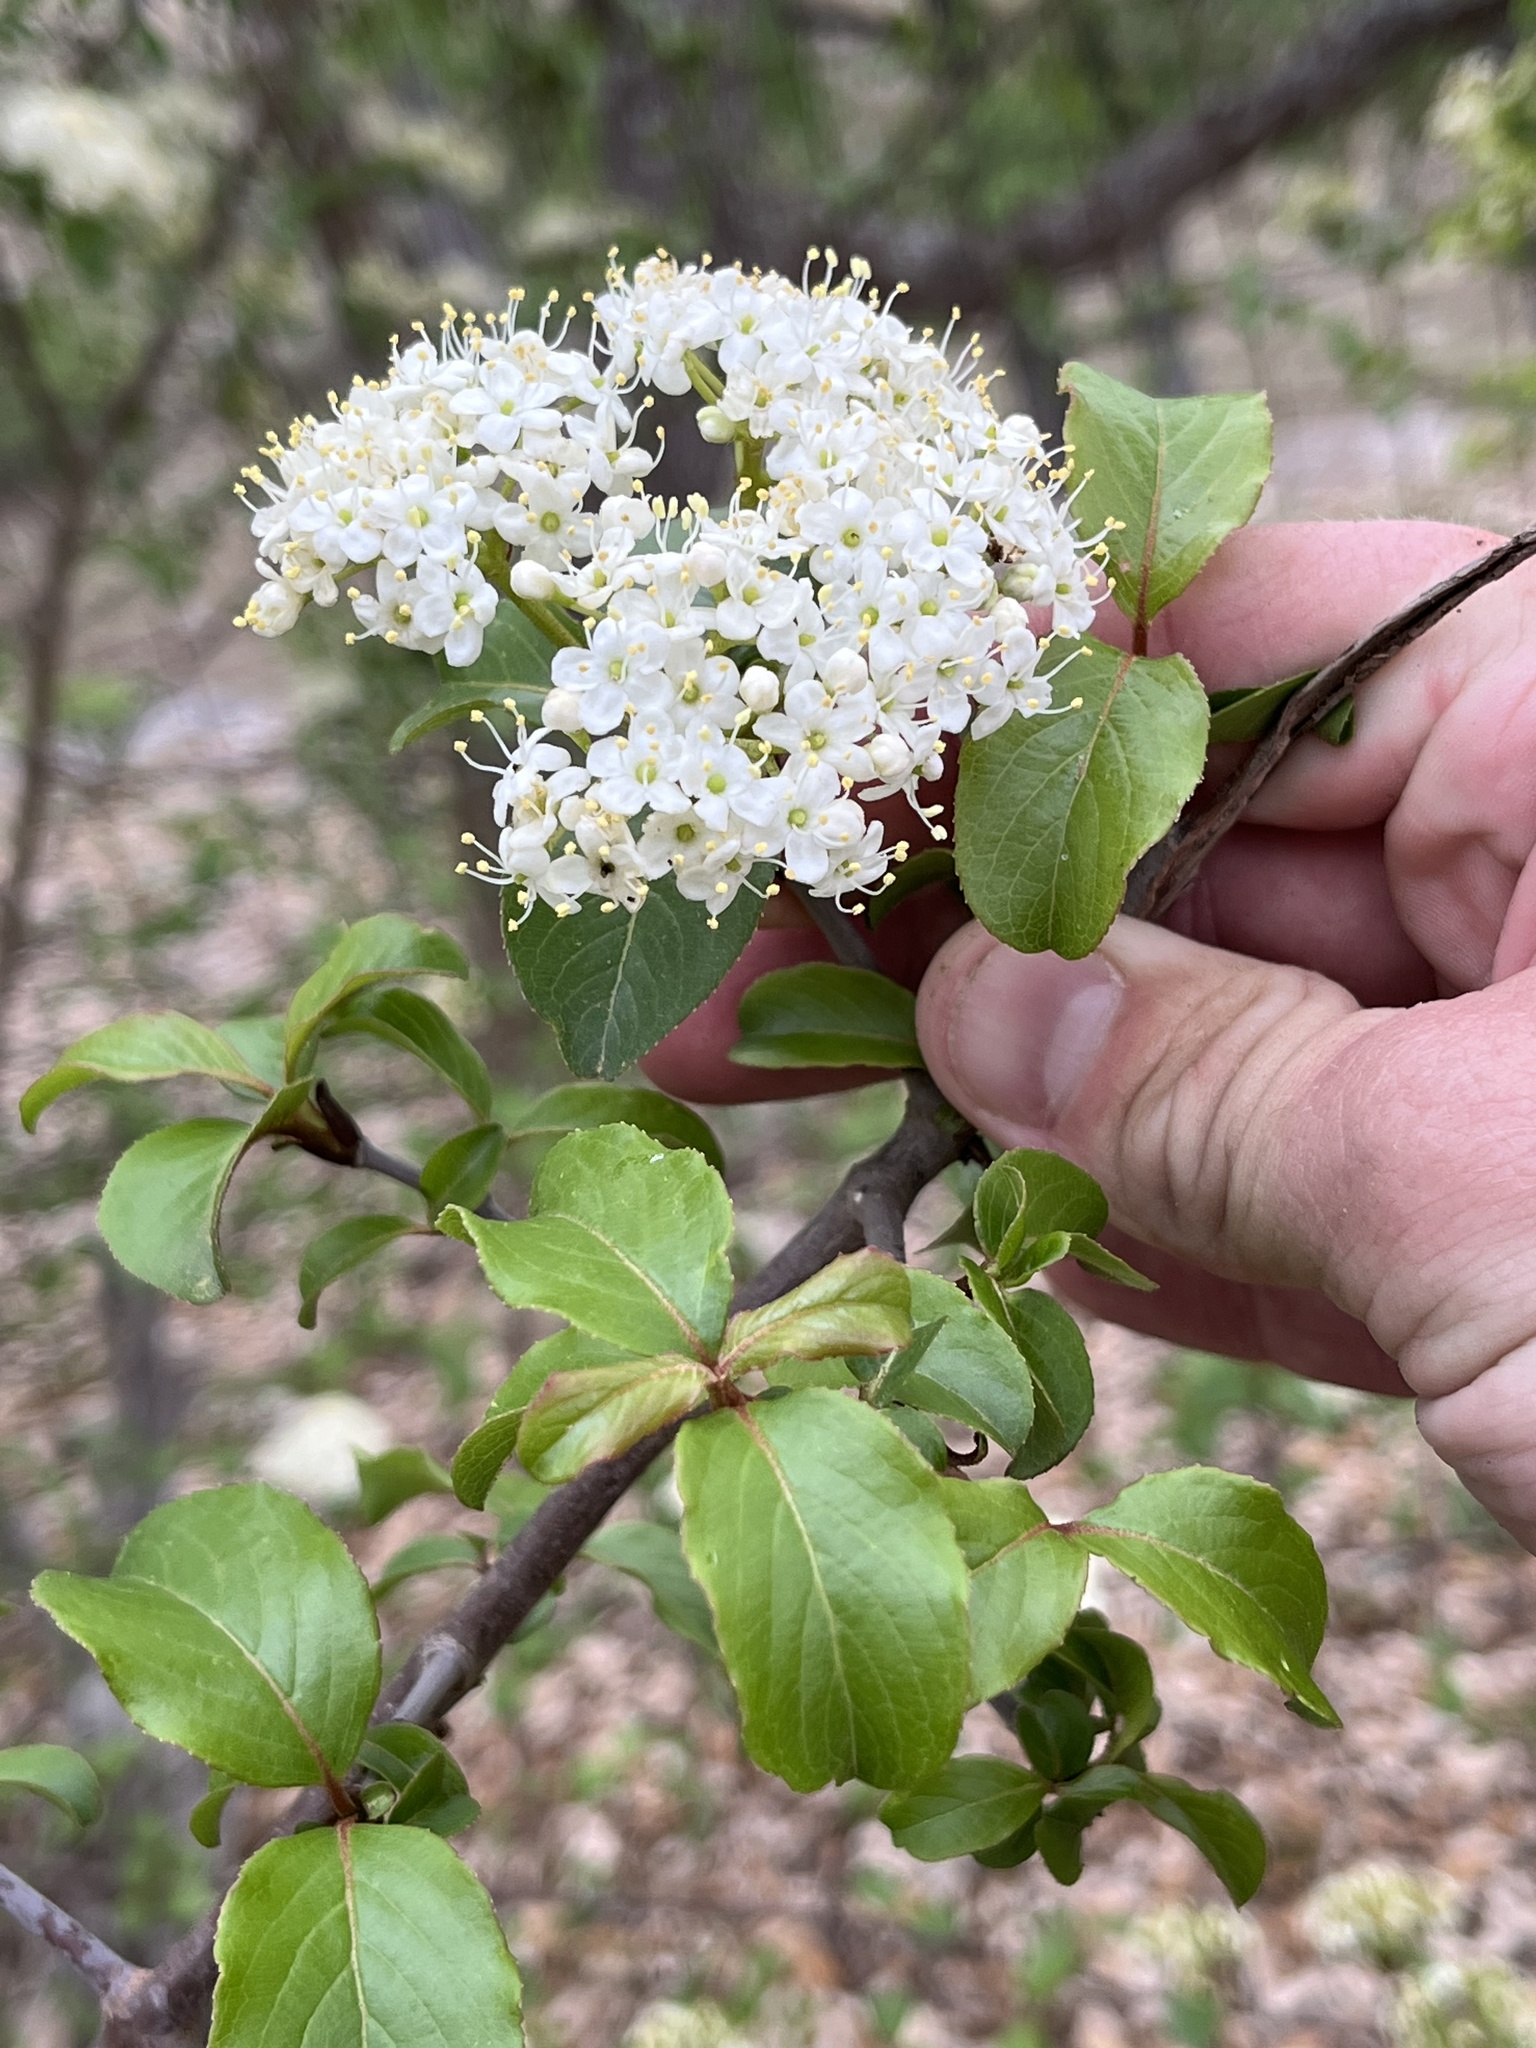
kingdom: Plantae
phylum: Tracheophyta
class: Magnoliopsida
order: Dipsacales
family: Viburnaceae
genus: Viburnum
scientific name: Viburnum rufidulum
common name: Blue haw
